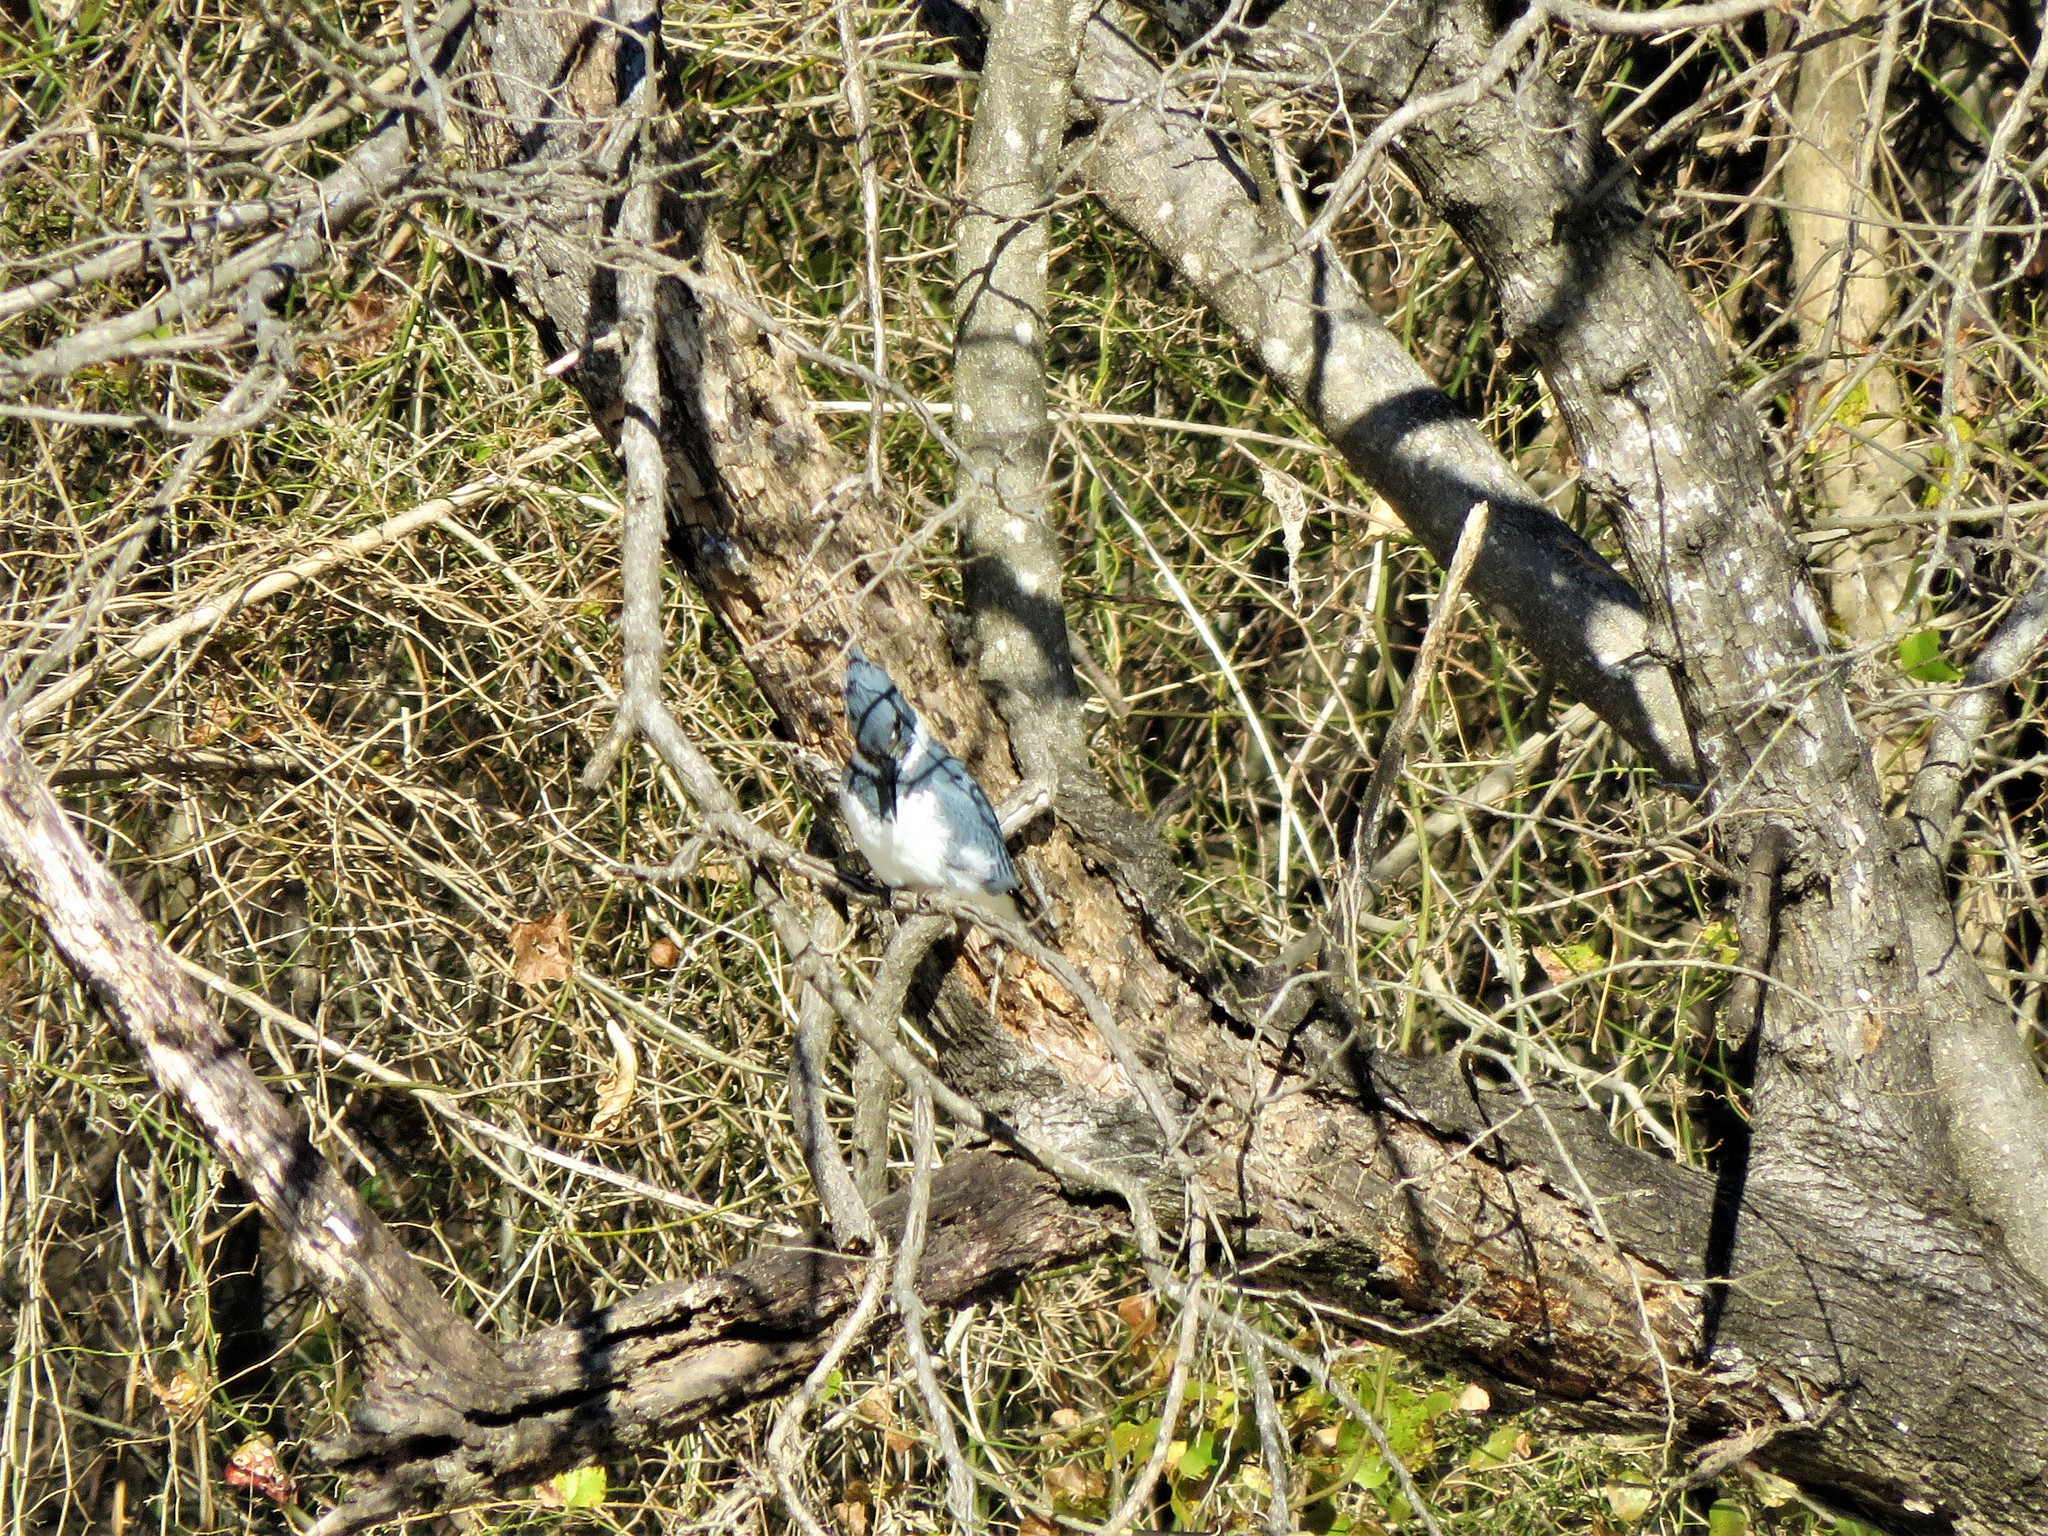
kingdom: Animalia
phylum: Chordata
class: Aves
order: Coraciiformes
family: Alcedinidae
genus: Megaceryle
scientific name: Megaceryle alcyon
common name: Belted kingfisher
